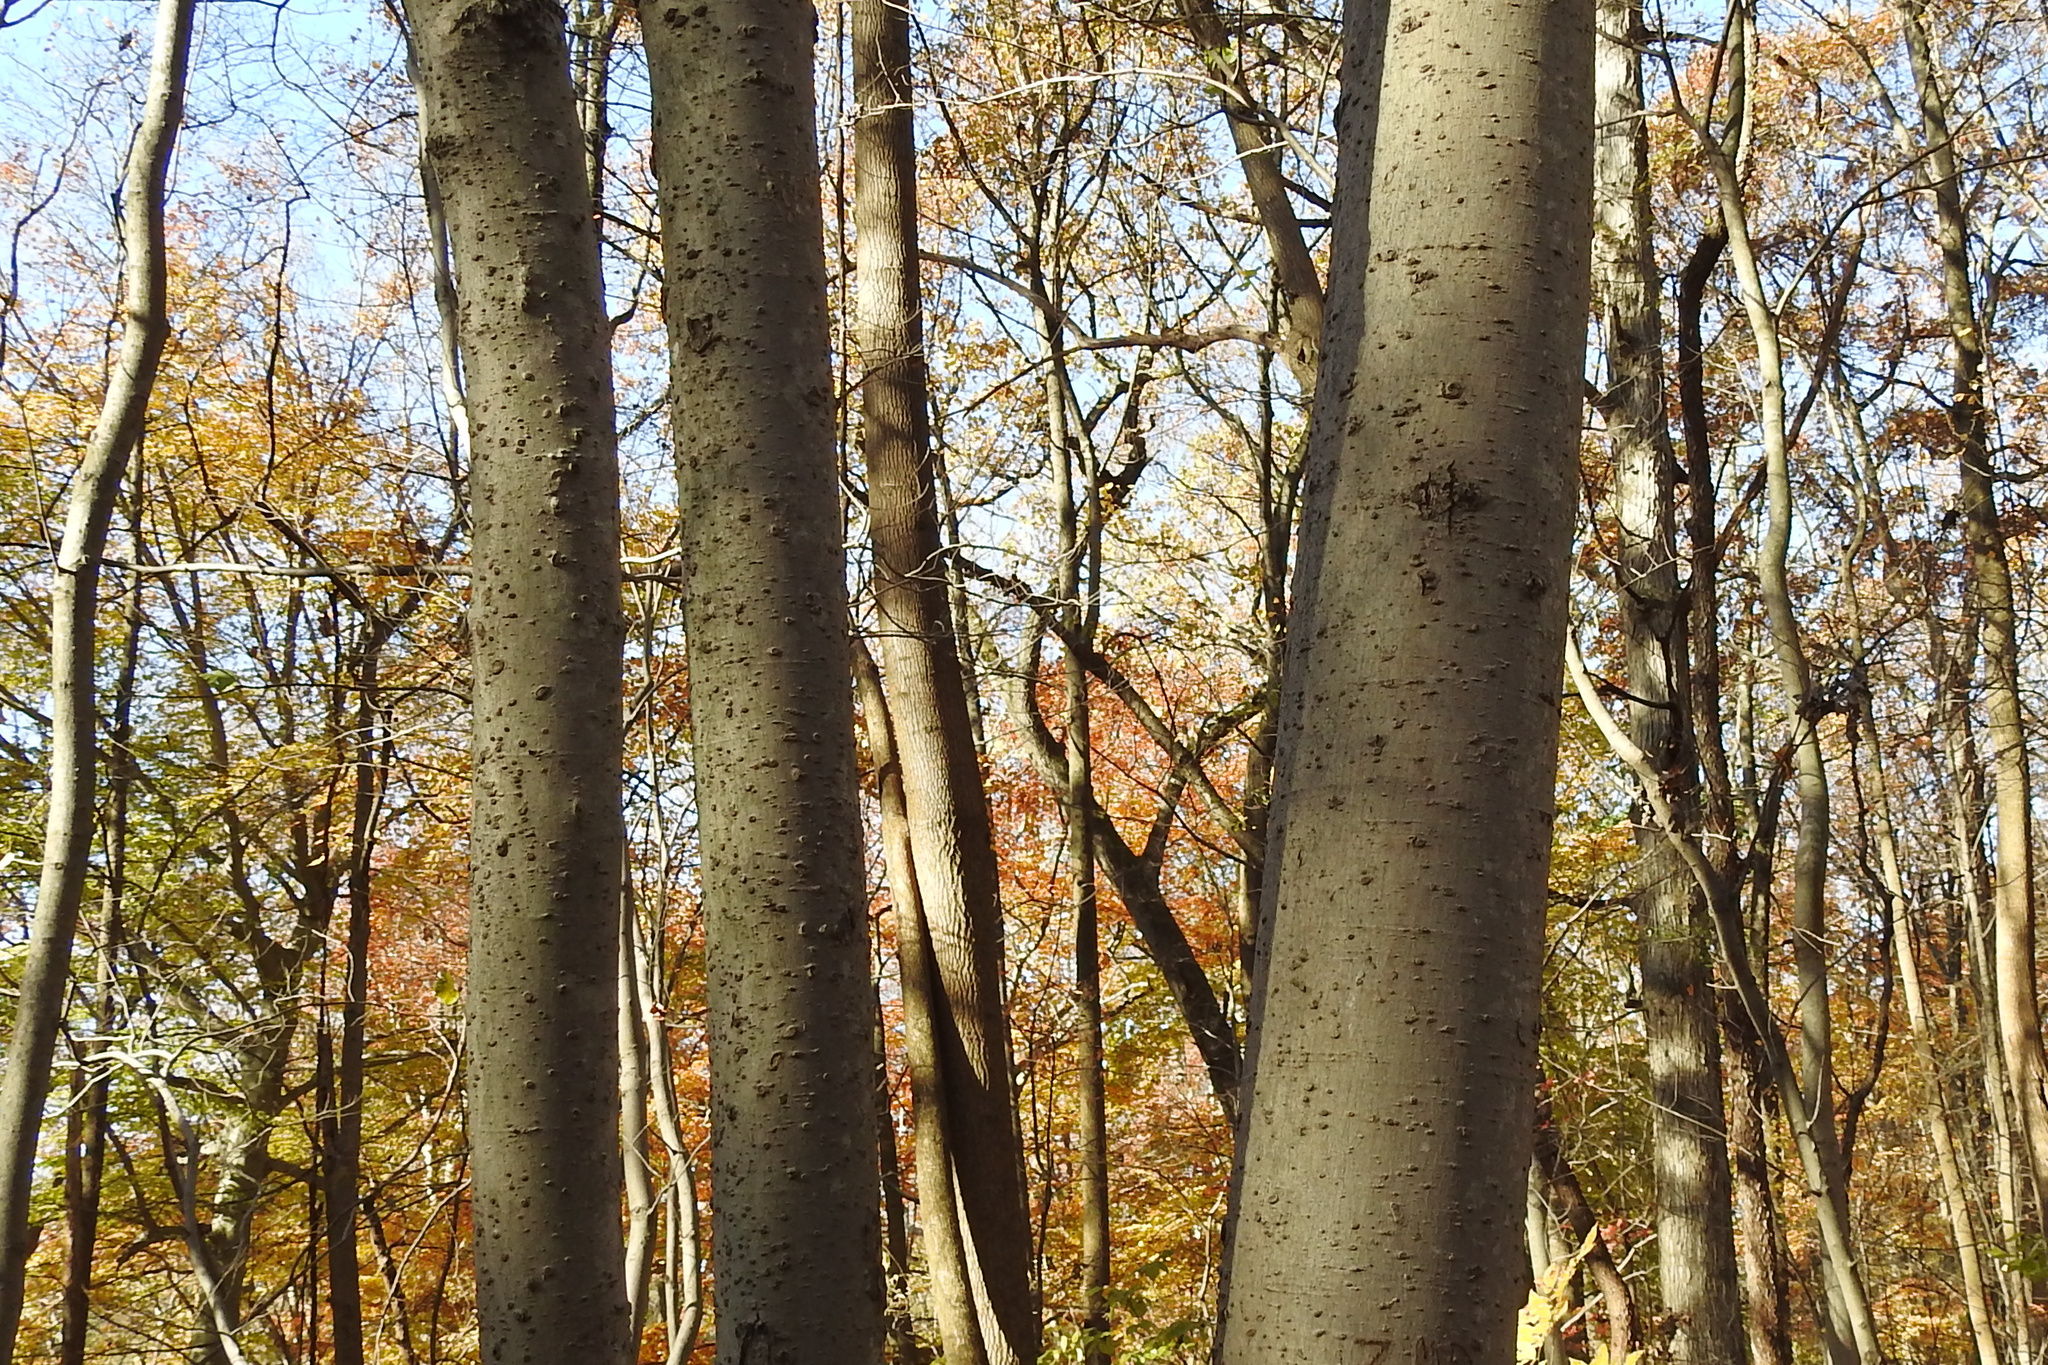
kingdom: Plantae
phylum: Tracheophyta
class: Magnoliopsida
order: Fagales
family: Fagaceae
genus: Fagus
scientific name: Fagus grandifolia
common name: American beech
